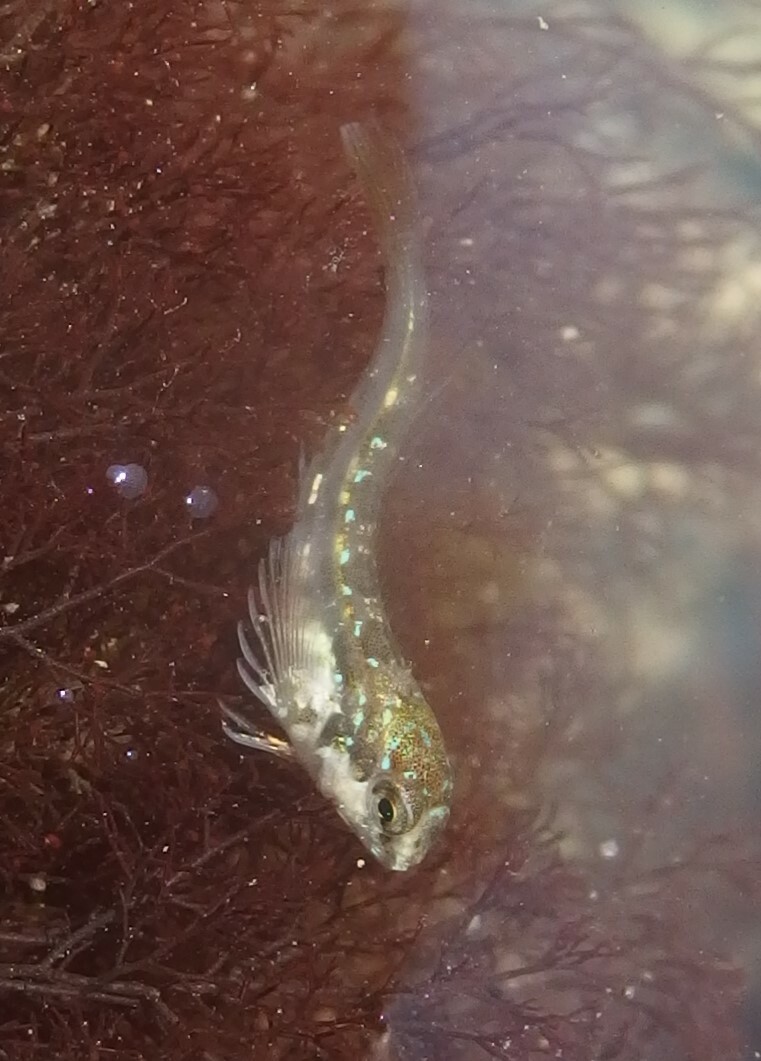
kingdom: Animalia
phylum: Chordata
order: Perciformes
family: Blenniidae
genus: Lipophrys
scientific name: Lipophrys pholis
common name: Shanny
